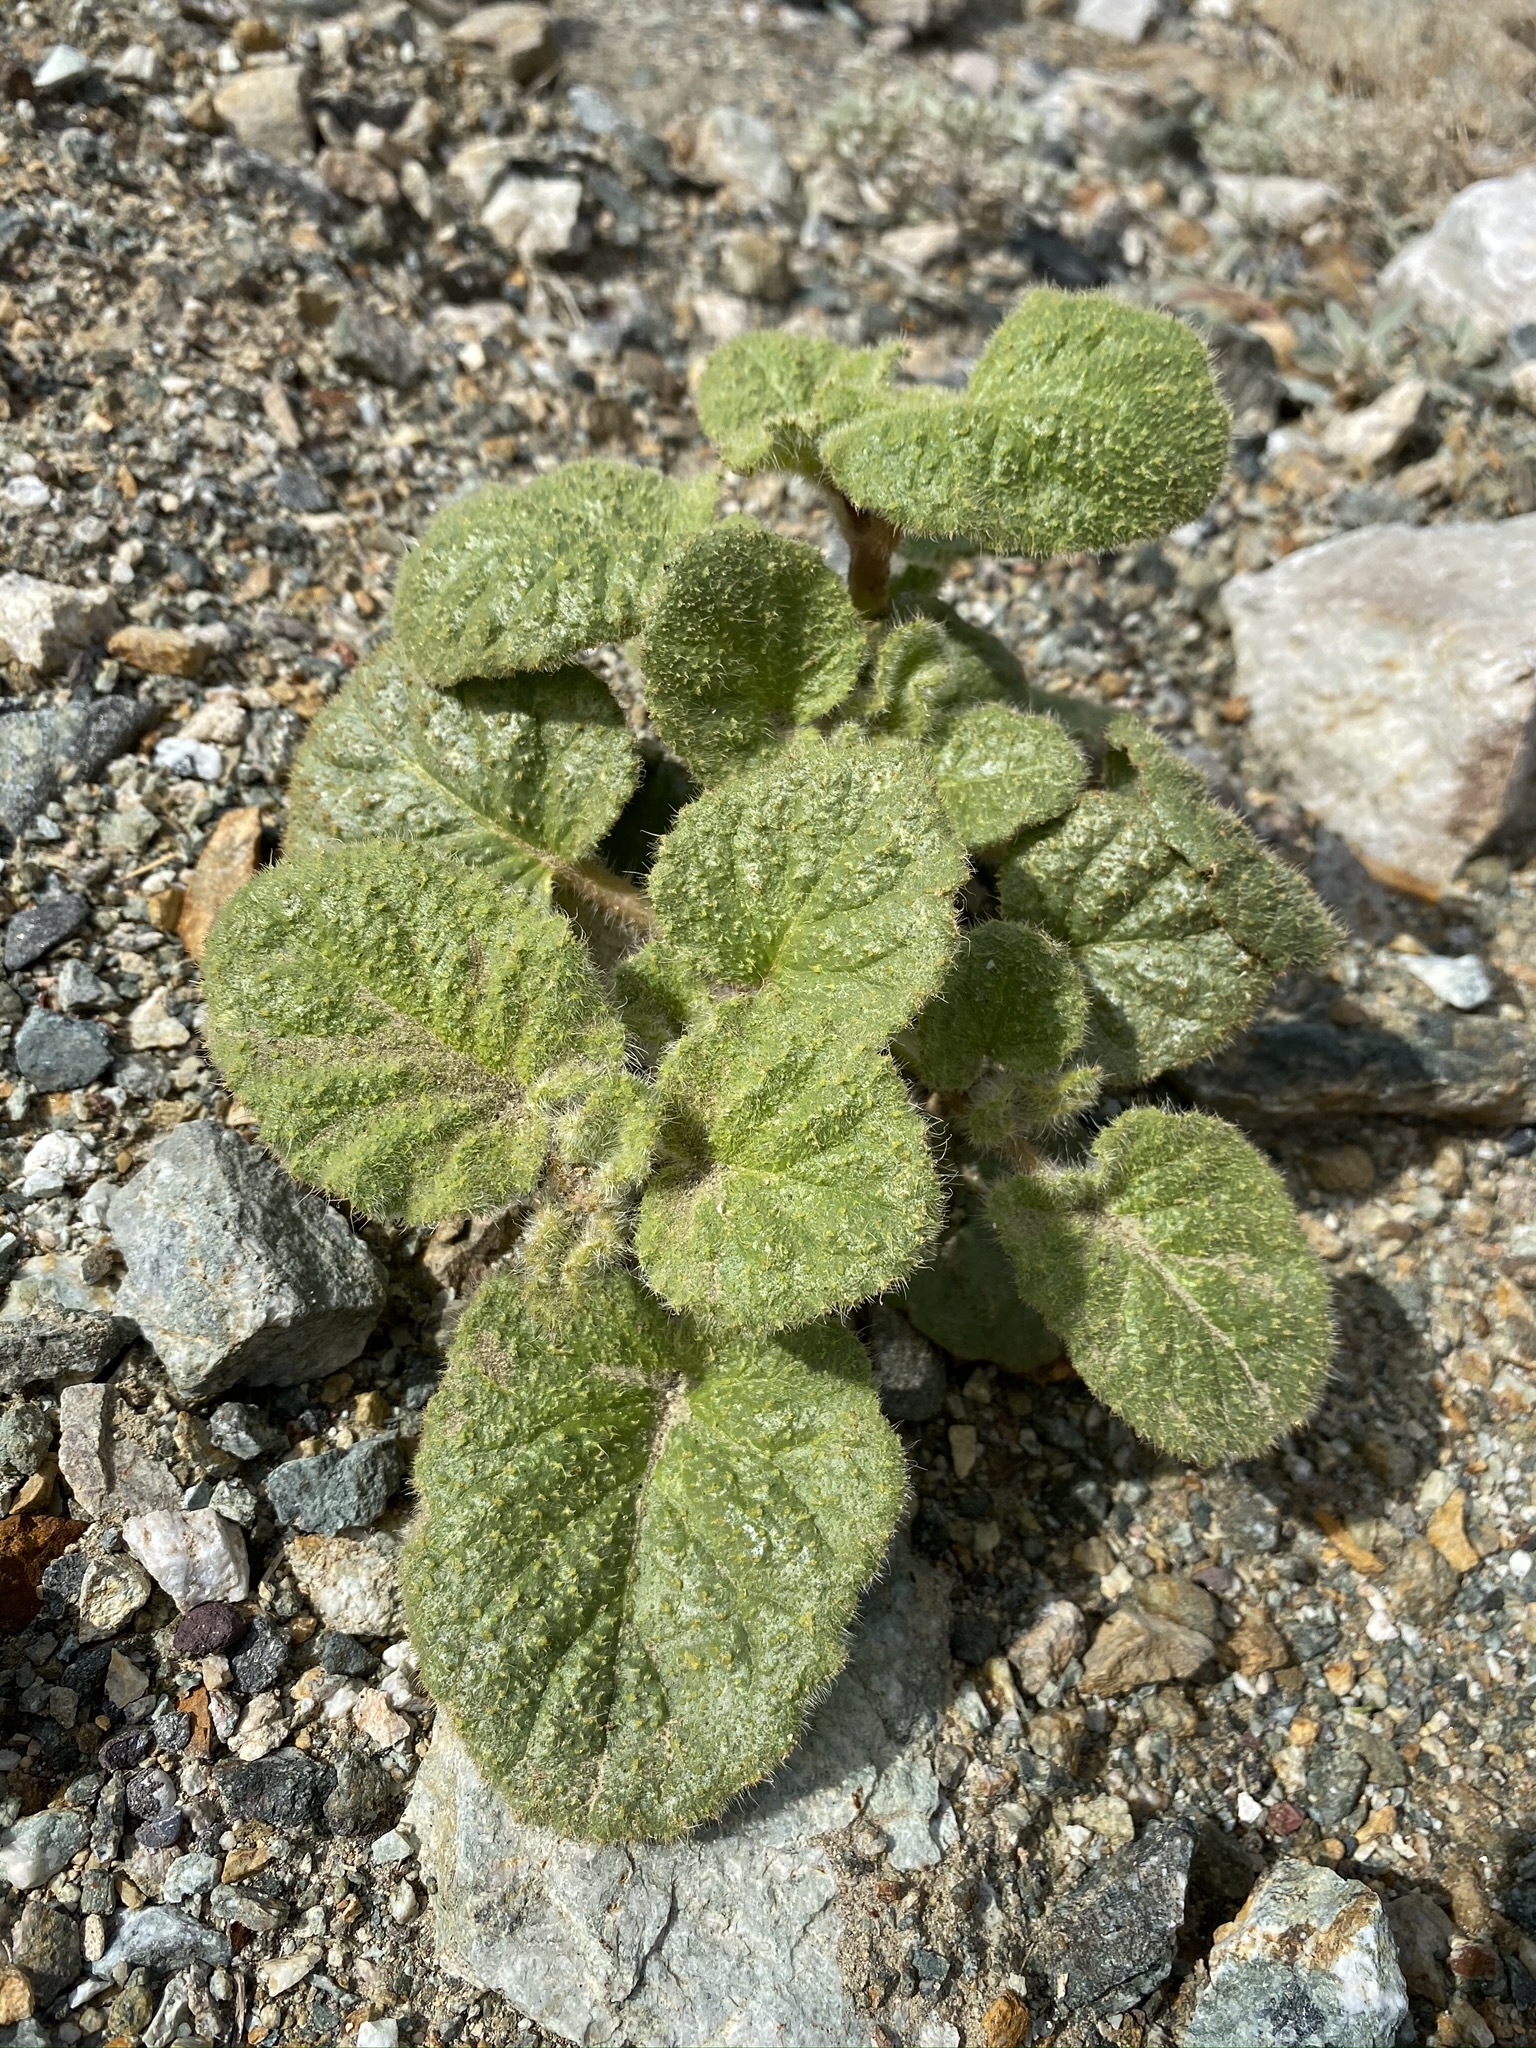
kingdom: Plantae
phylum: Tracheophyta
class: Magnoliopsida
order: Caryophyllales
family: Nyctaginaceae
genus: Anulocaulis
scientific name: Anulocaulis annulatus
